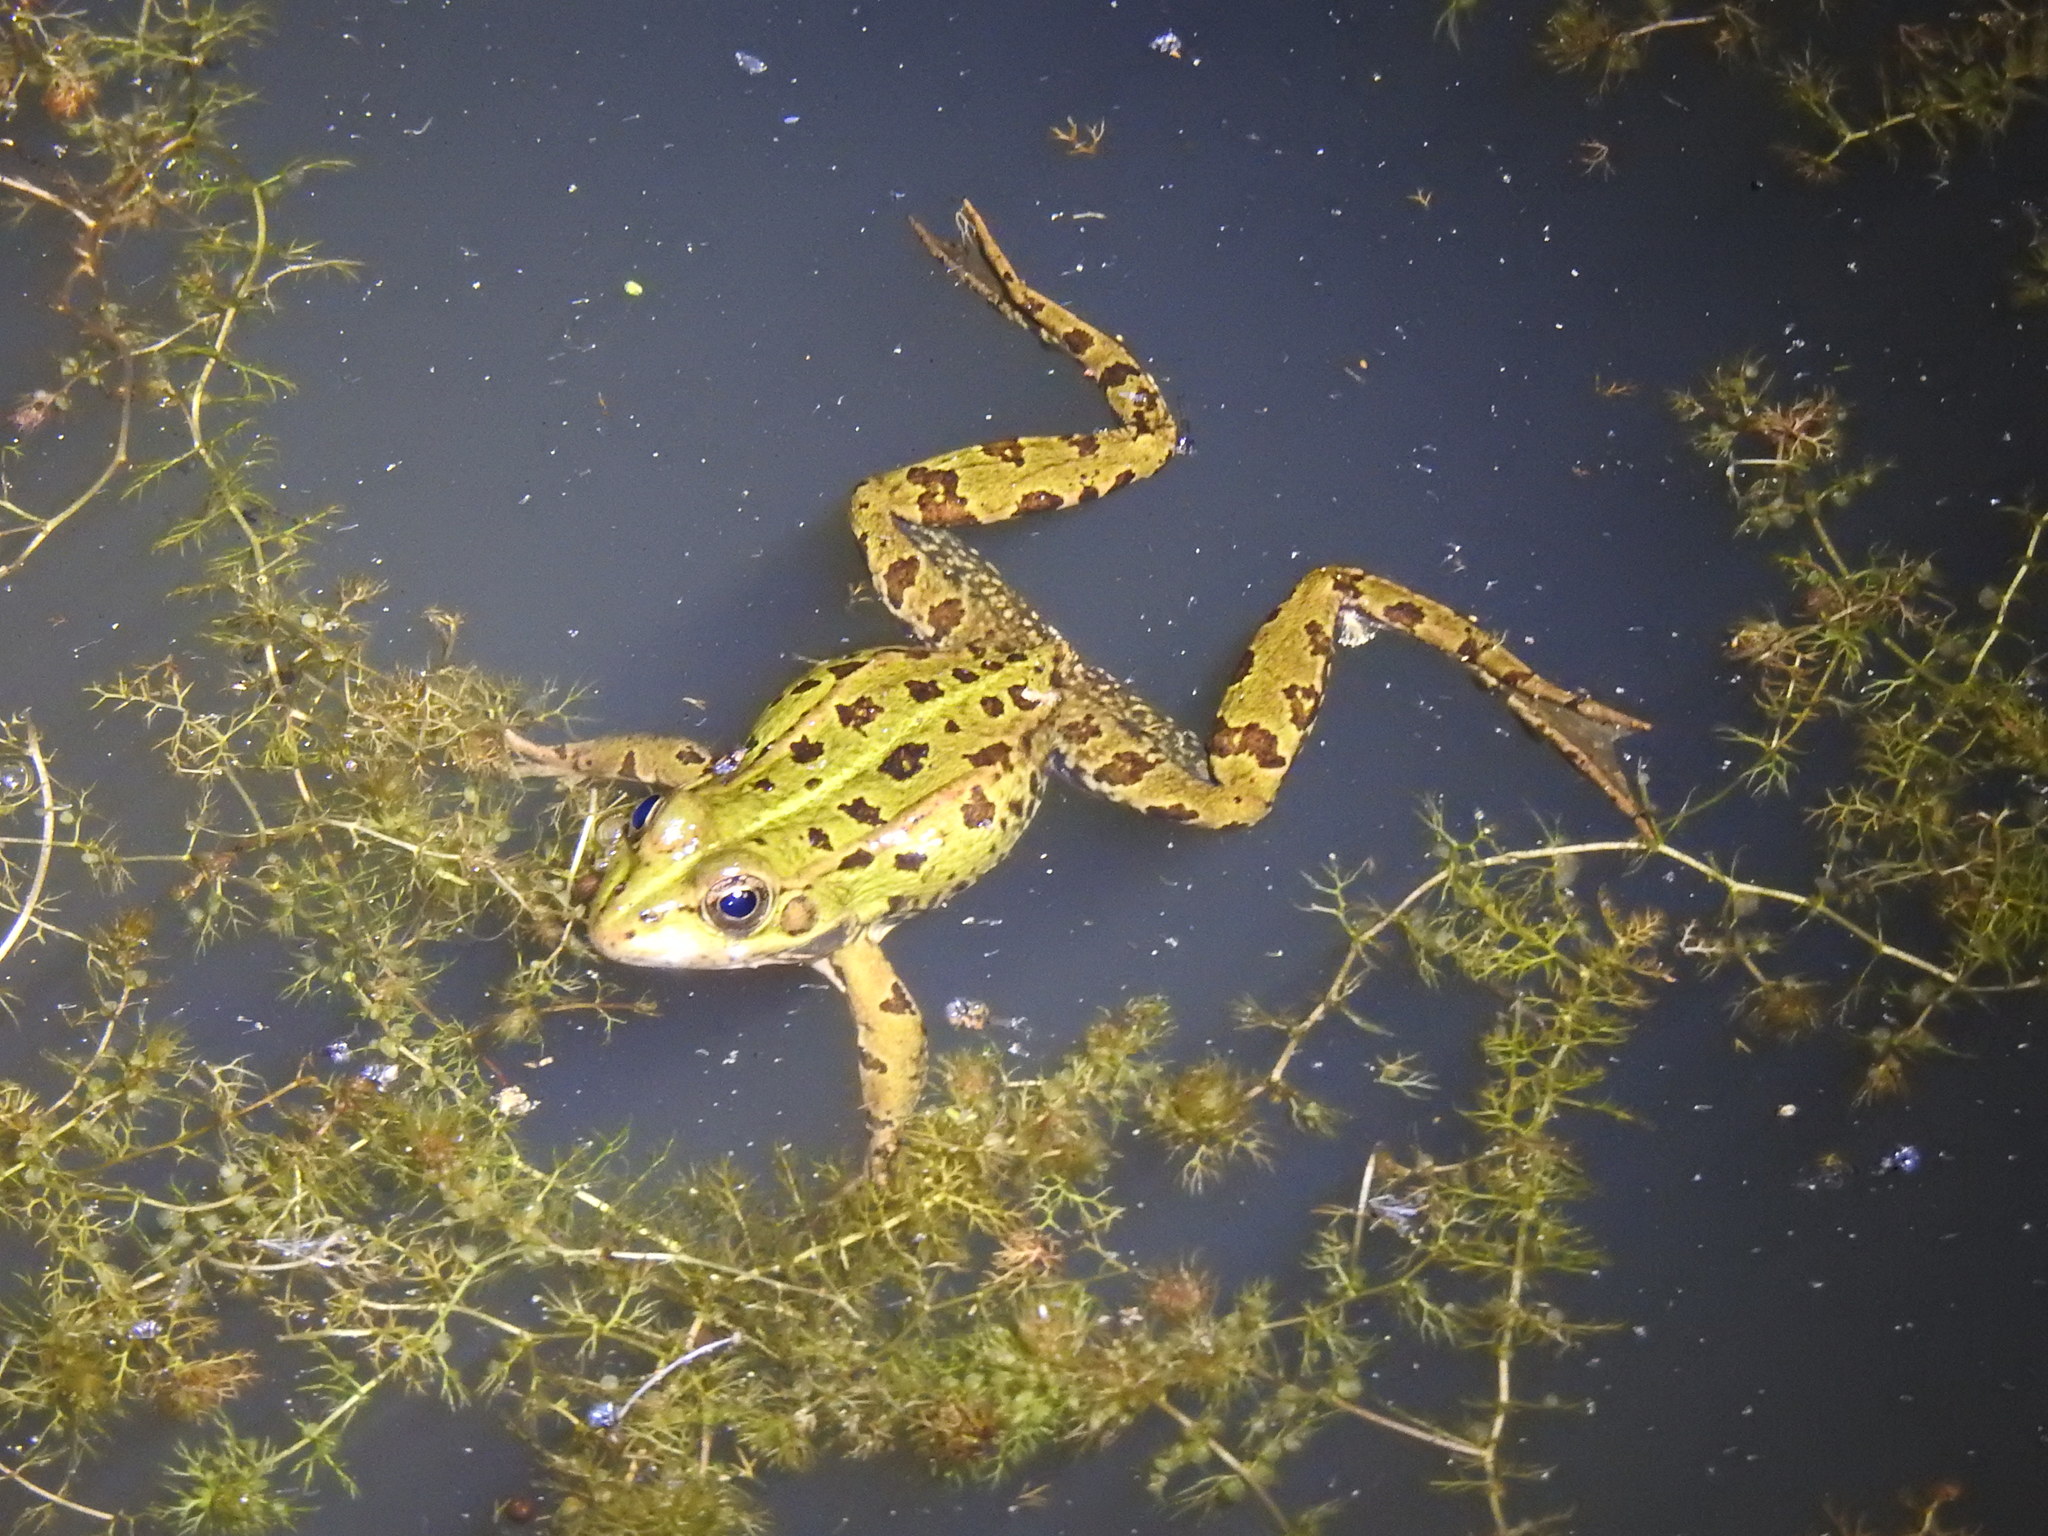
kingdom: Animalia
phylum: Chordata
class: Amphibia
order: Anura
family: Ranidae
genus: Pelophylax
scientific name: Pelophylax perezi
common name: Perez's frog
